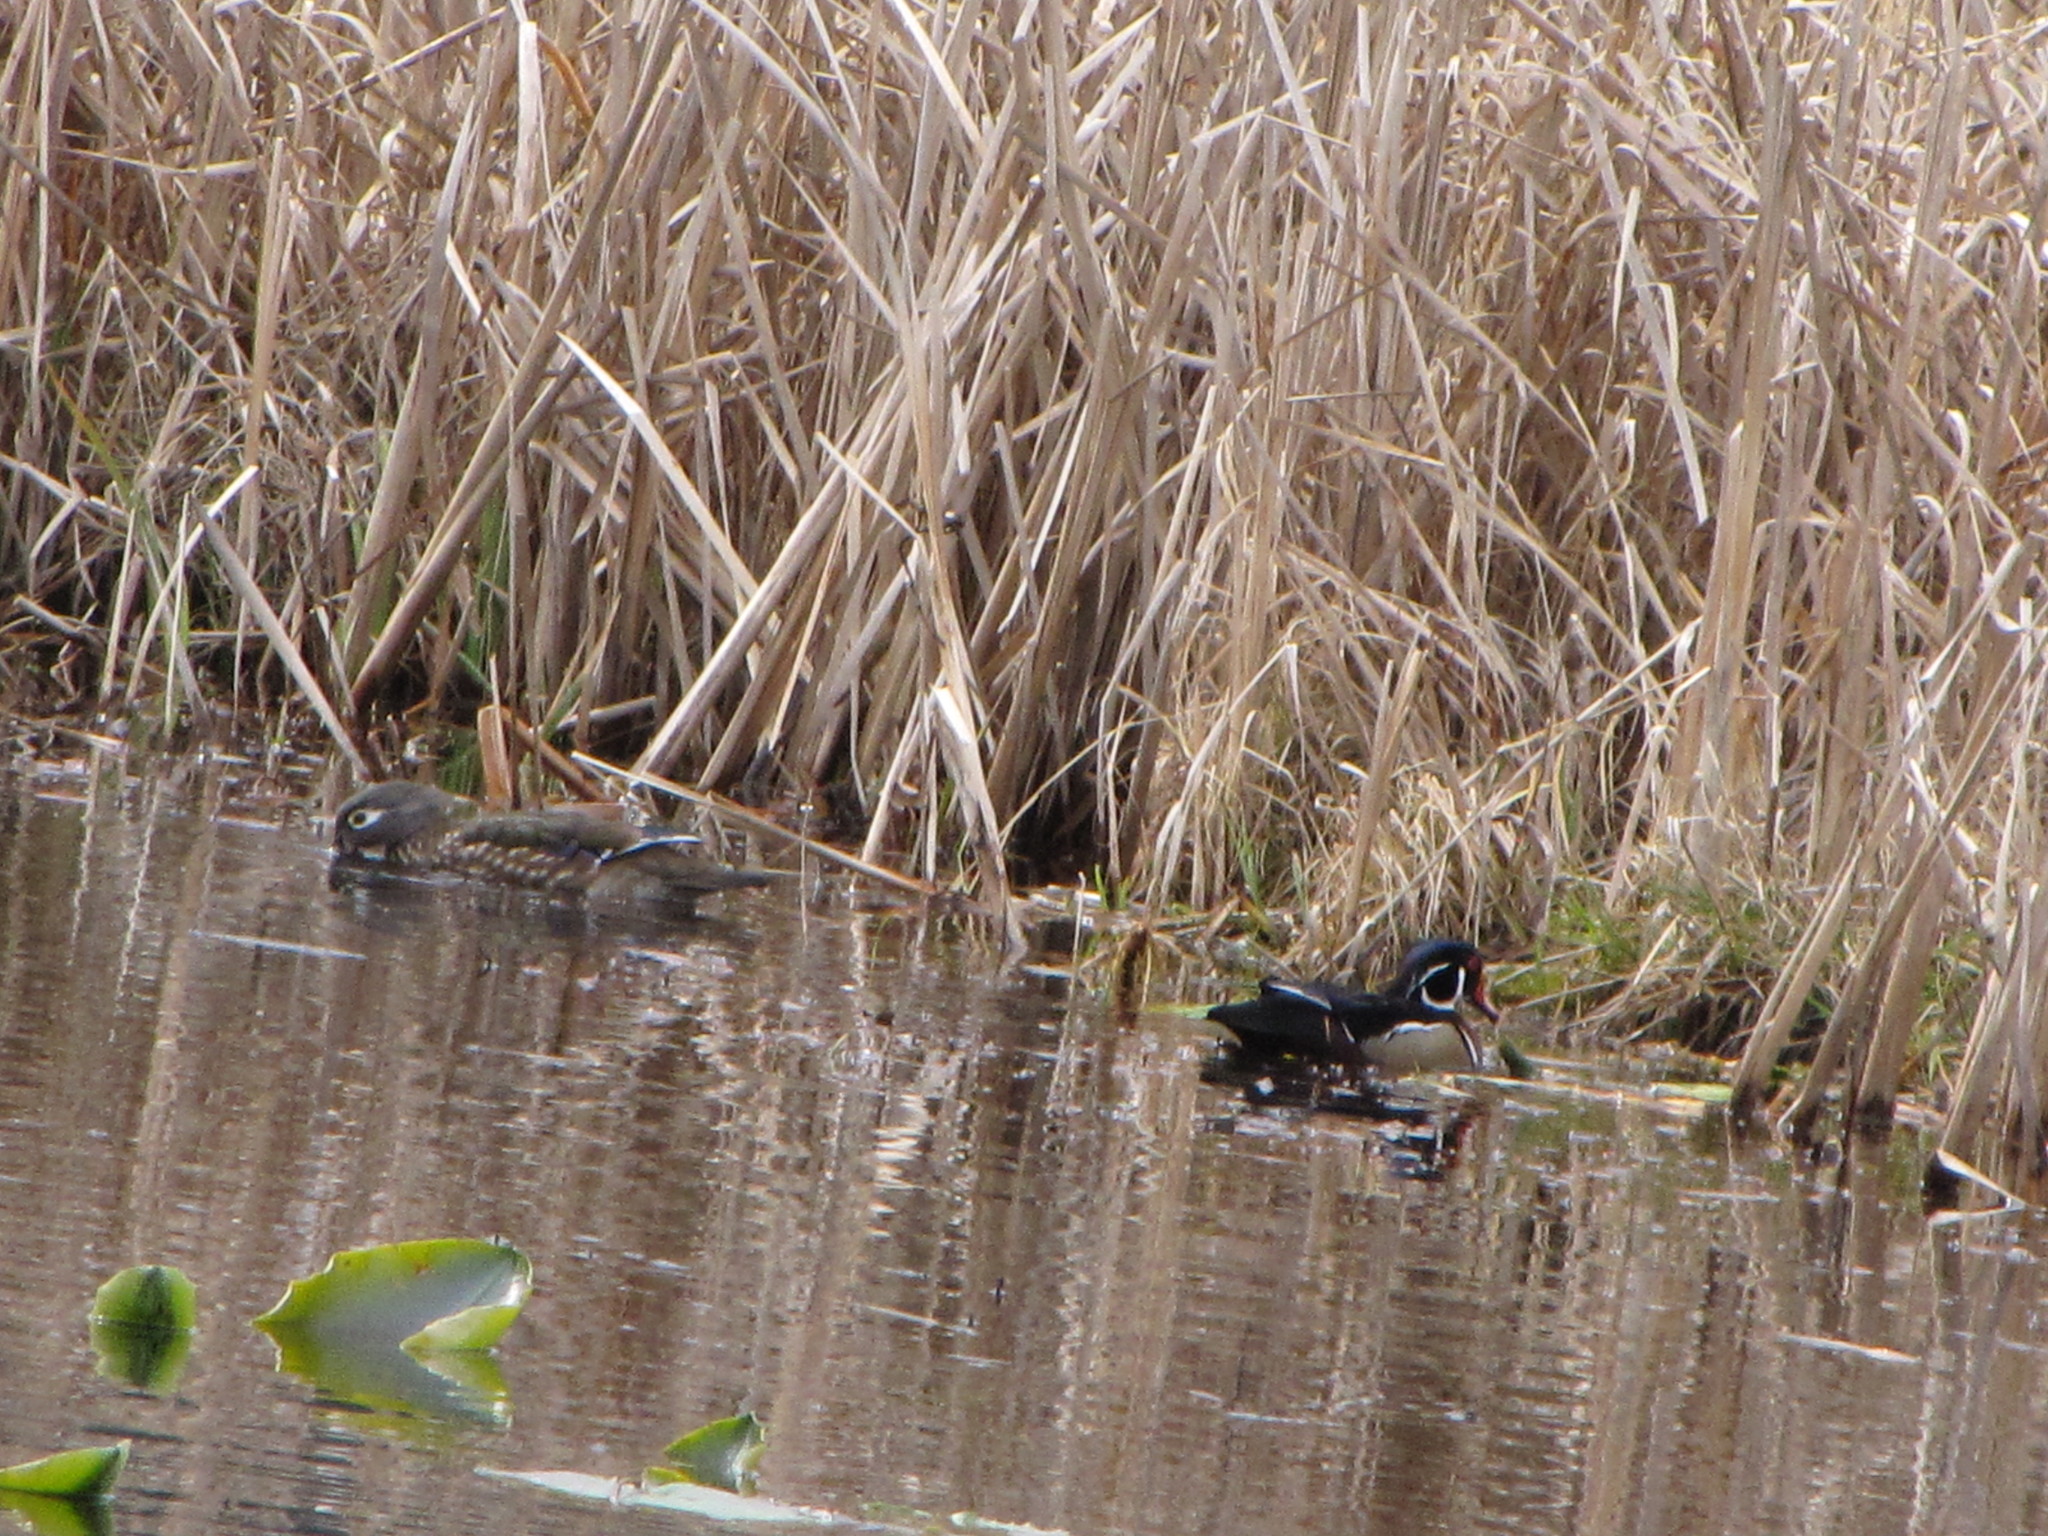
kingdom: Animalia
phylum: Chordata
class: Aves
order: Anseriformes
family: Anatidae
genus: Aix
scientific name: Aix sponsa
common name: Wood duck
